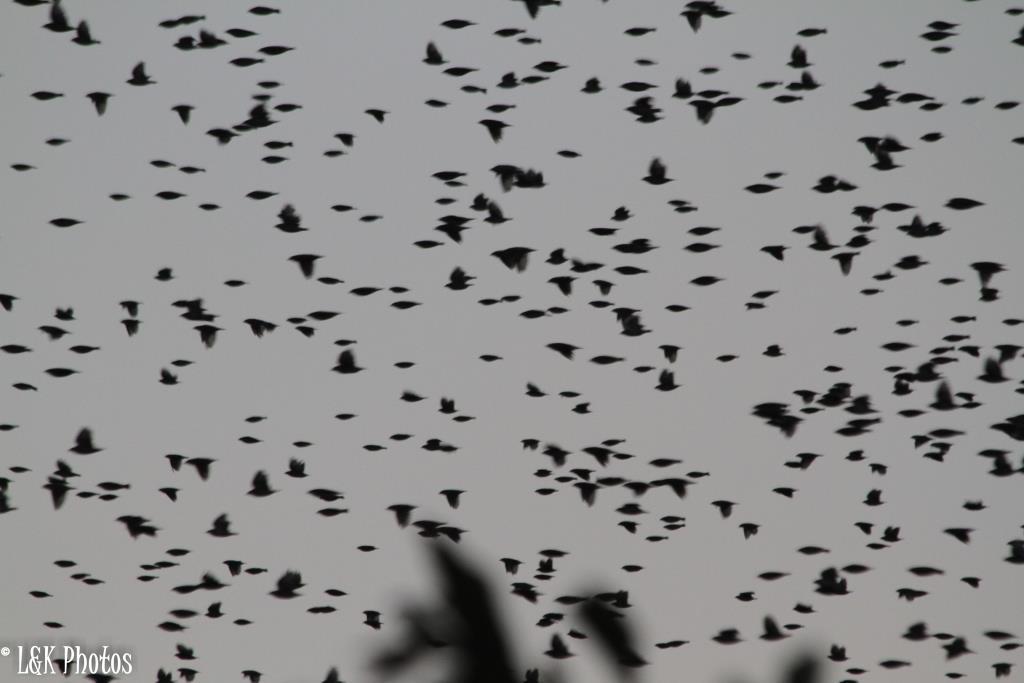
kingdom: Animalia
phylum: Chordata
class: Aves
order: Passeriformes
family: Ploceidae
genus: Quelea
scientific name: Quelea quelea
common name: Red-billed quelea
